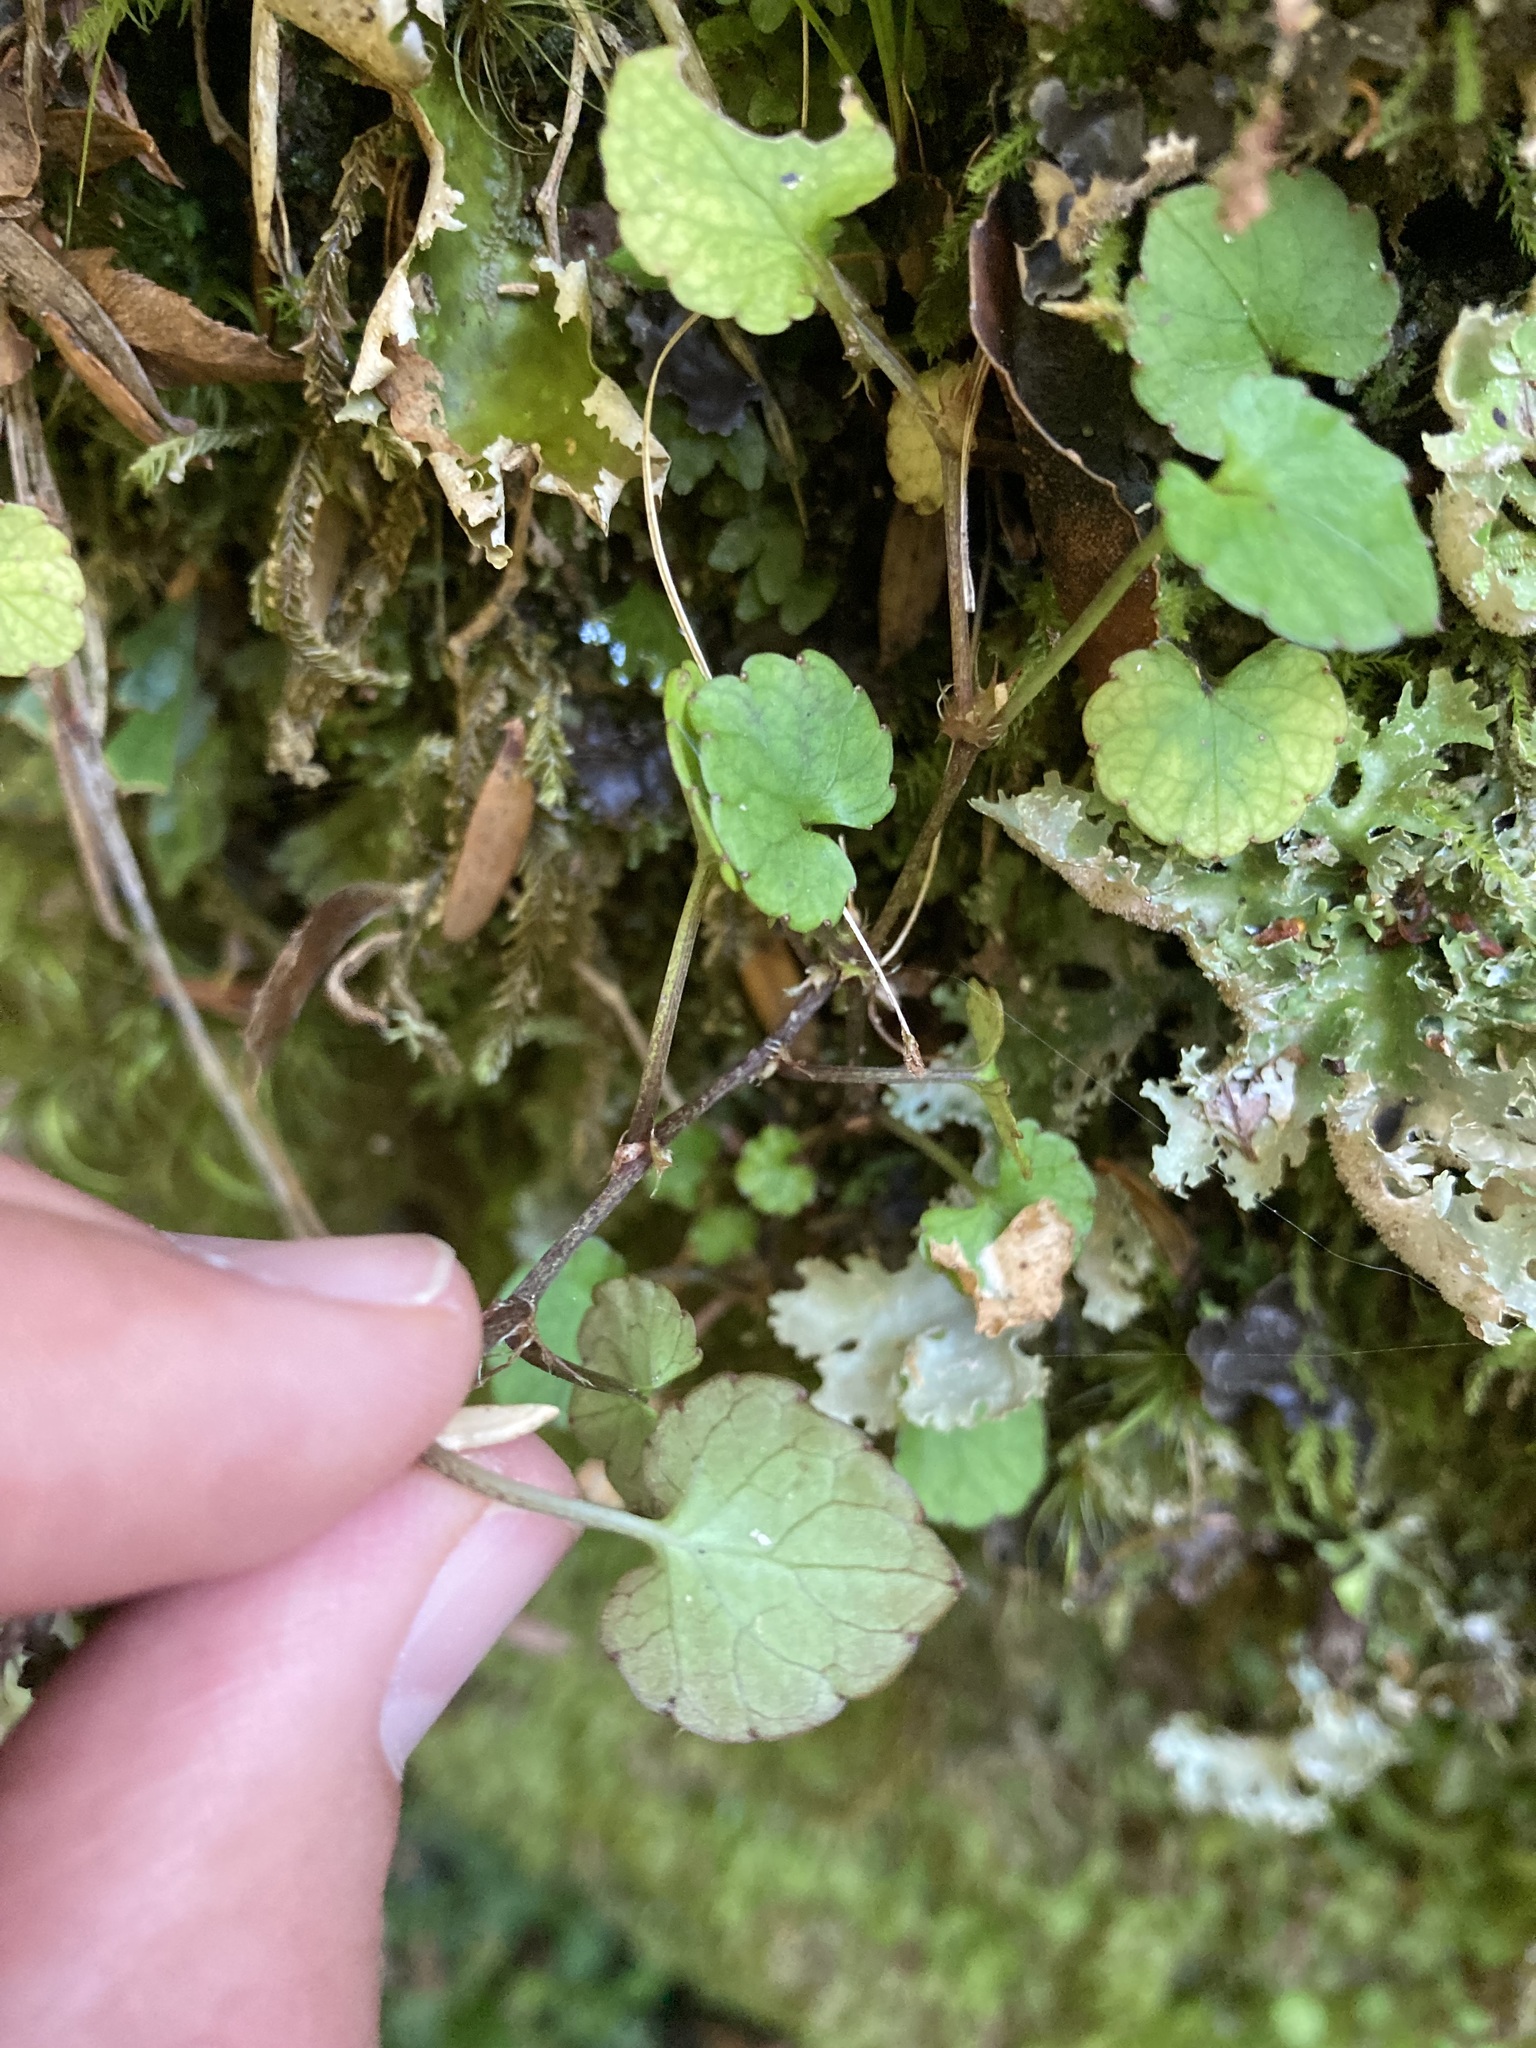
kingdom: Plantae
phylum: Tracheophyta
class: Magnoliopsida
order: Malpighiales
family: Violaceae
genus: Viola
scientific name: Viola filicaulis
